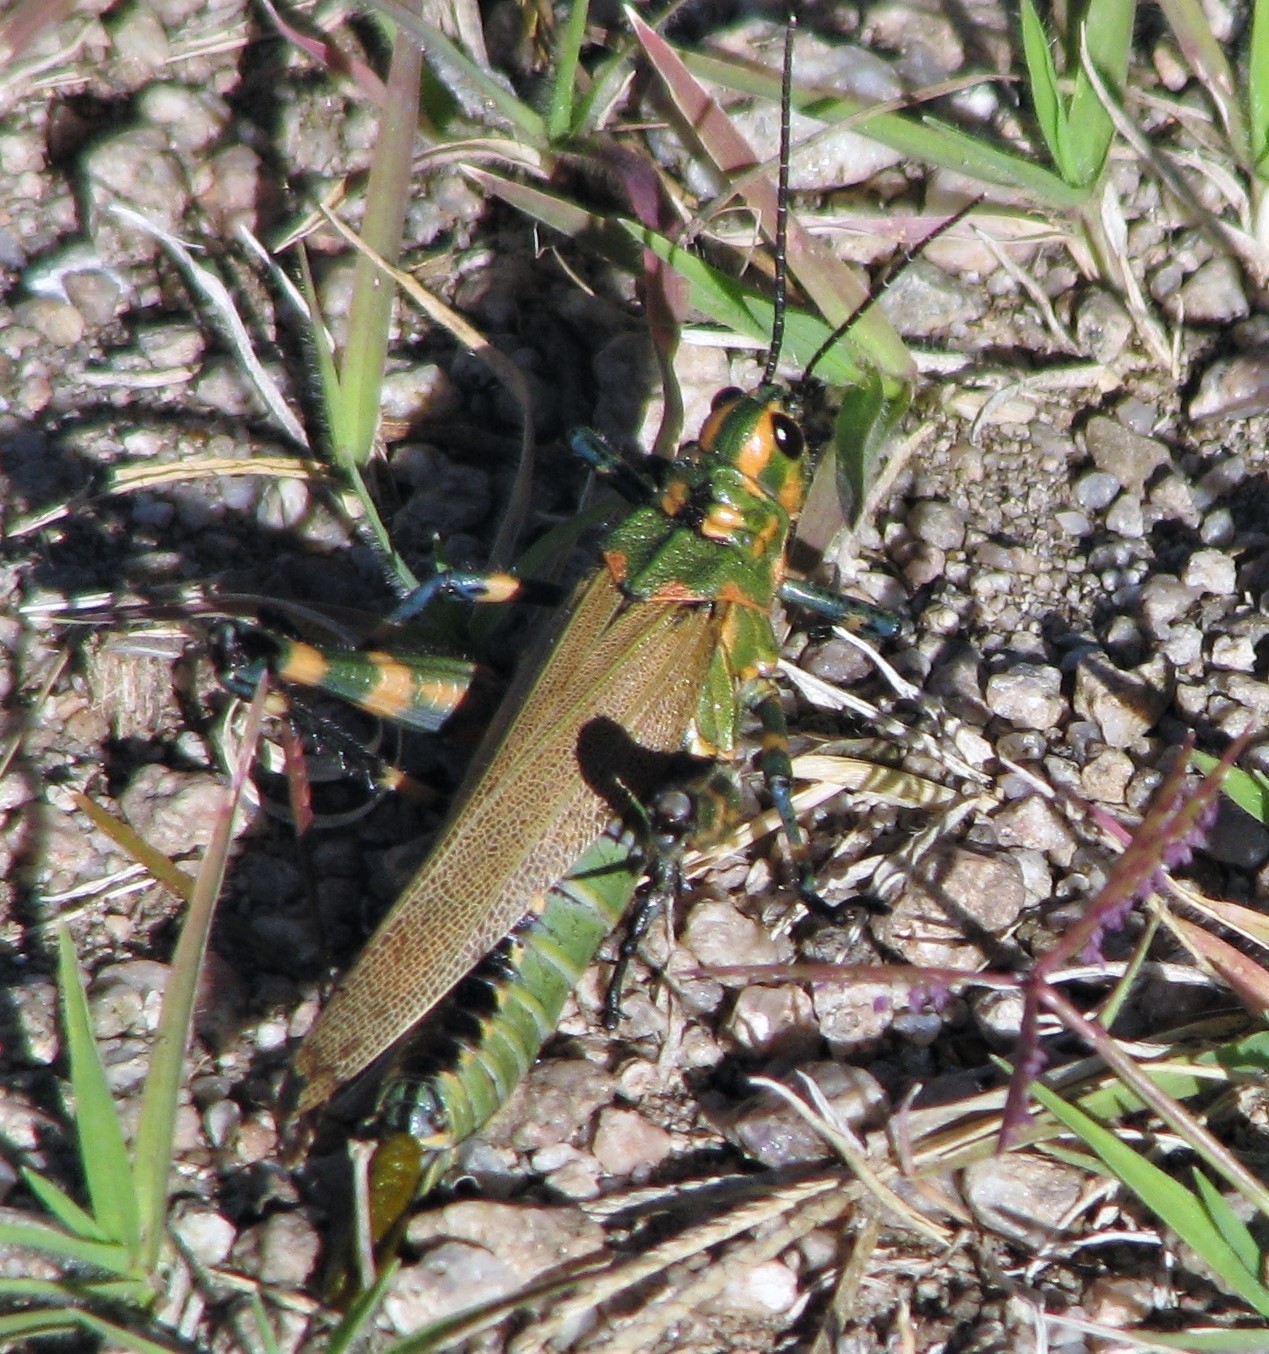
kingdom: Animalia
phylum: Arthropoda
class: Insecta
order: Orthoptera
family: Romaleidae
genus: Chromacris
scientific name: Chromacris speciosa
